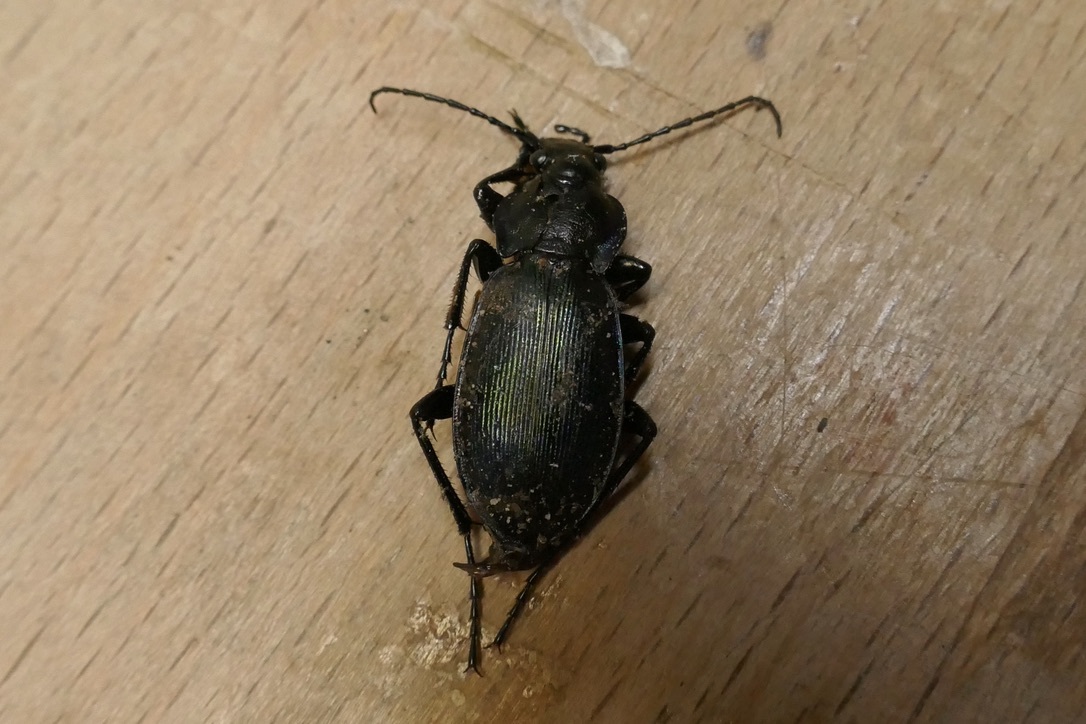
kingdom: Animalia
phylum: Arthropoda
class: Insecta
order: Coleoptera
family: Carabidae
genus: Carabus
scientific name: Carabus scheidleri
